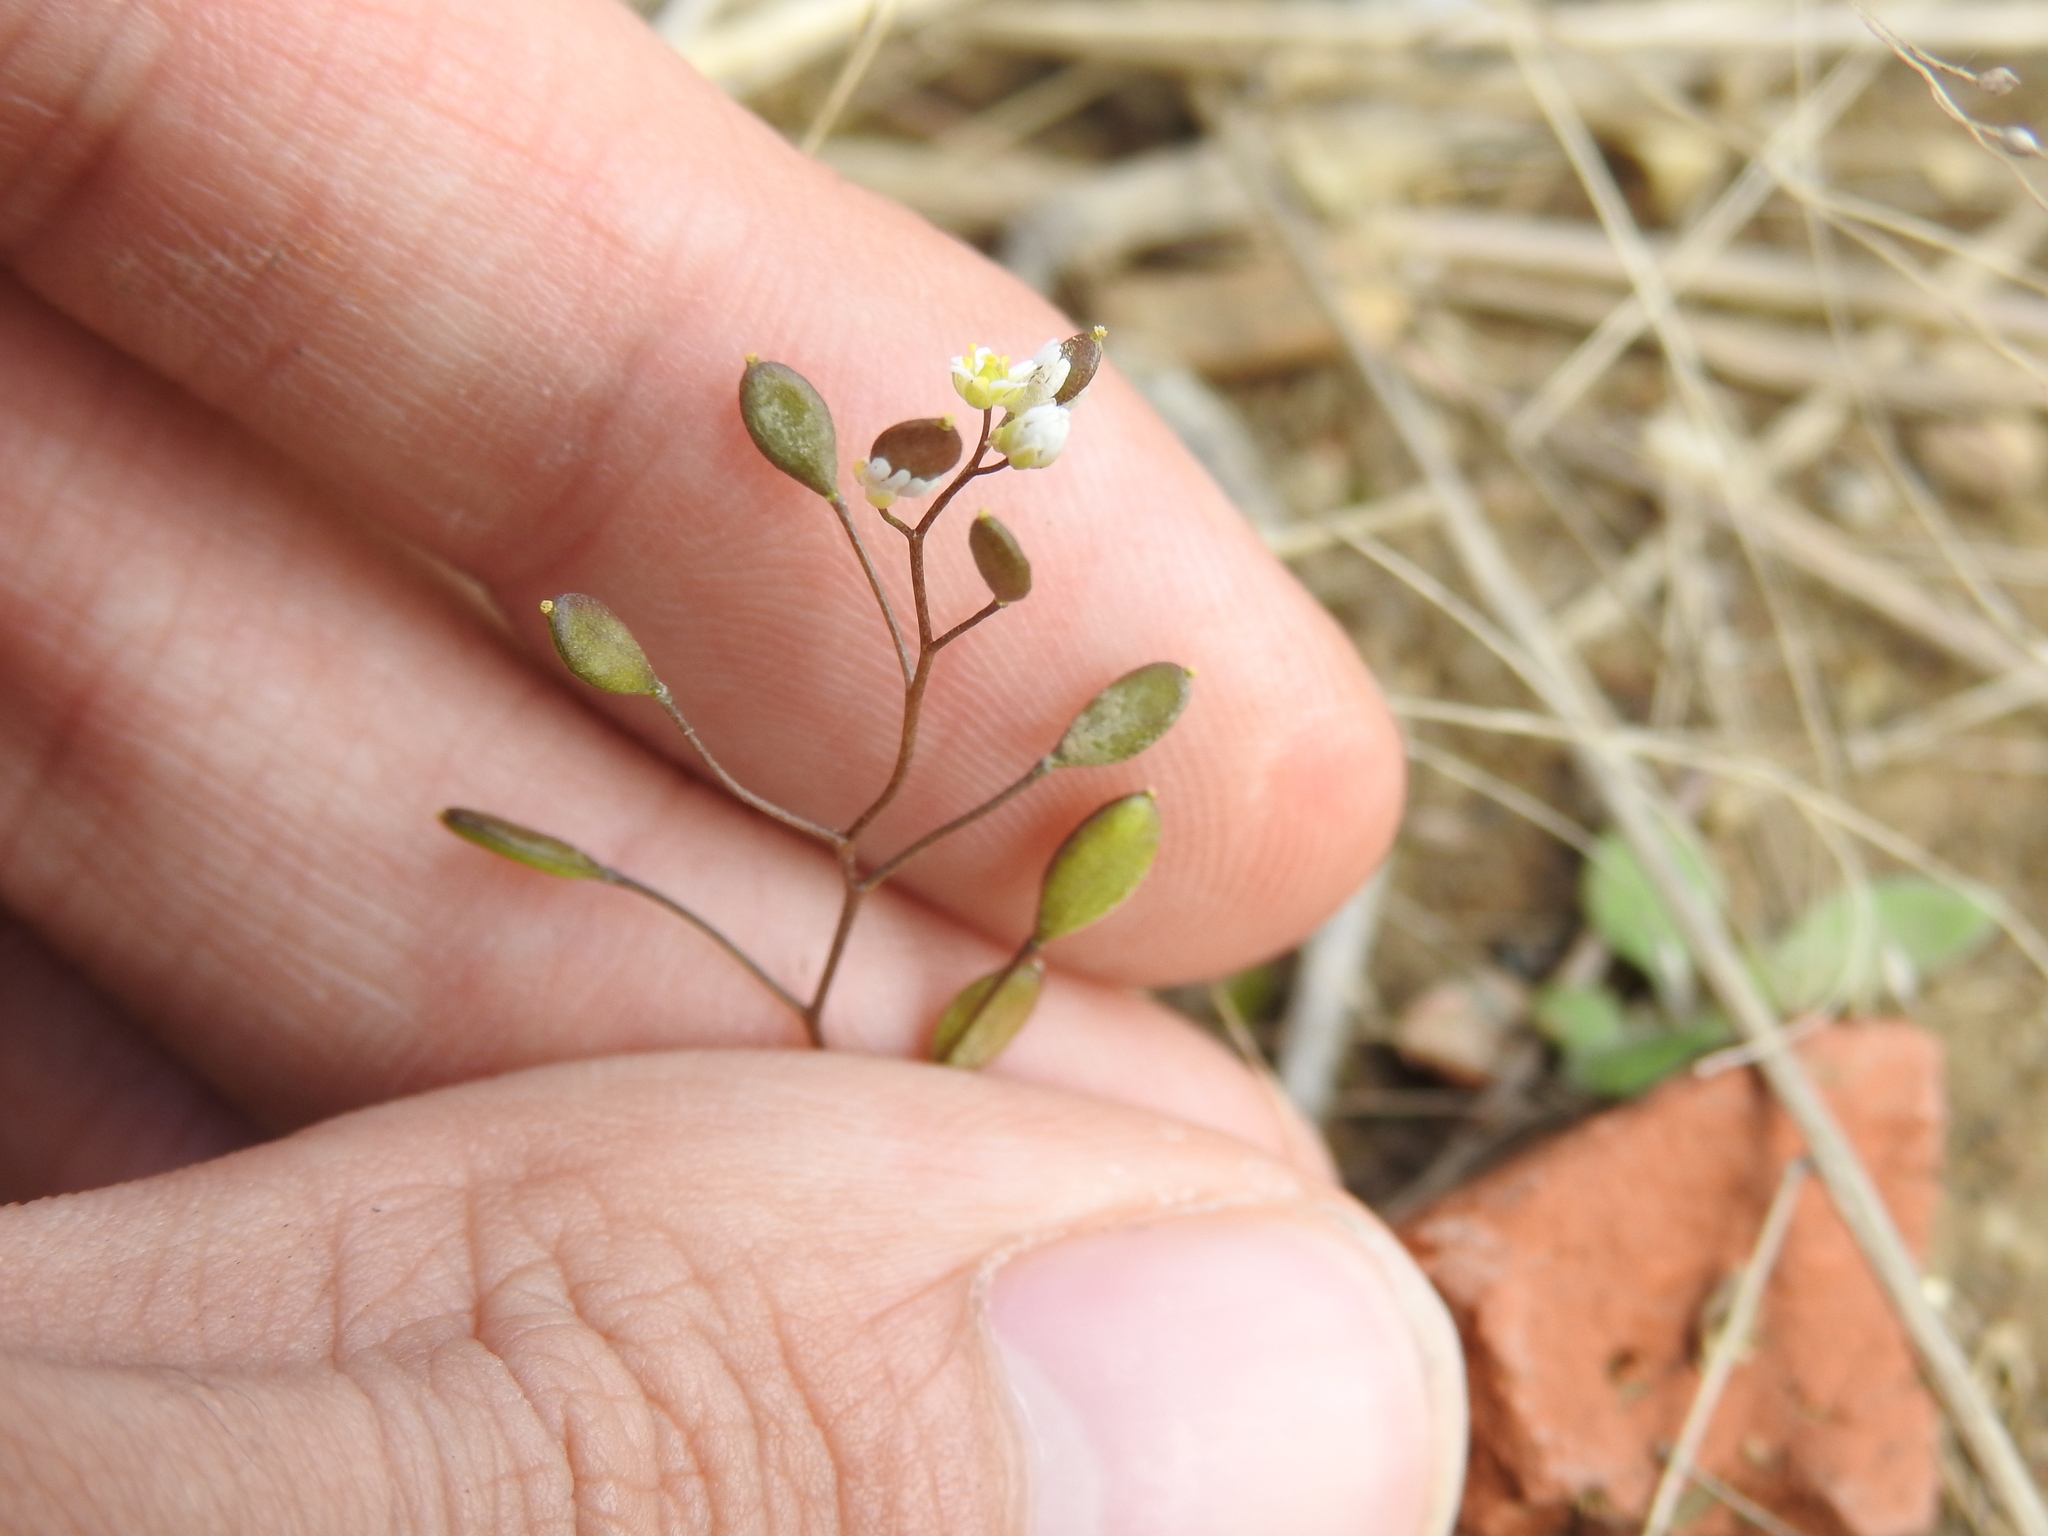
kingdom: Plantae
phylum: Tracheophyta
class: Magnoliopsida
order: Brassicales
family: Brassicaceae
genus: Draba
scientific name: Draba verna
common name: Spring draba
